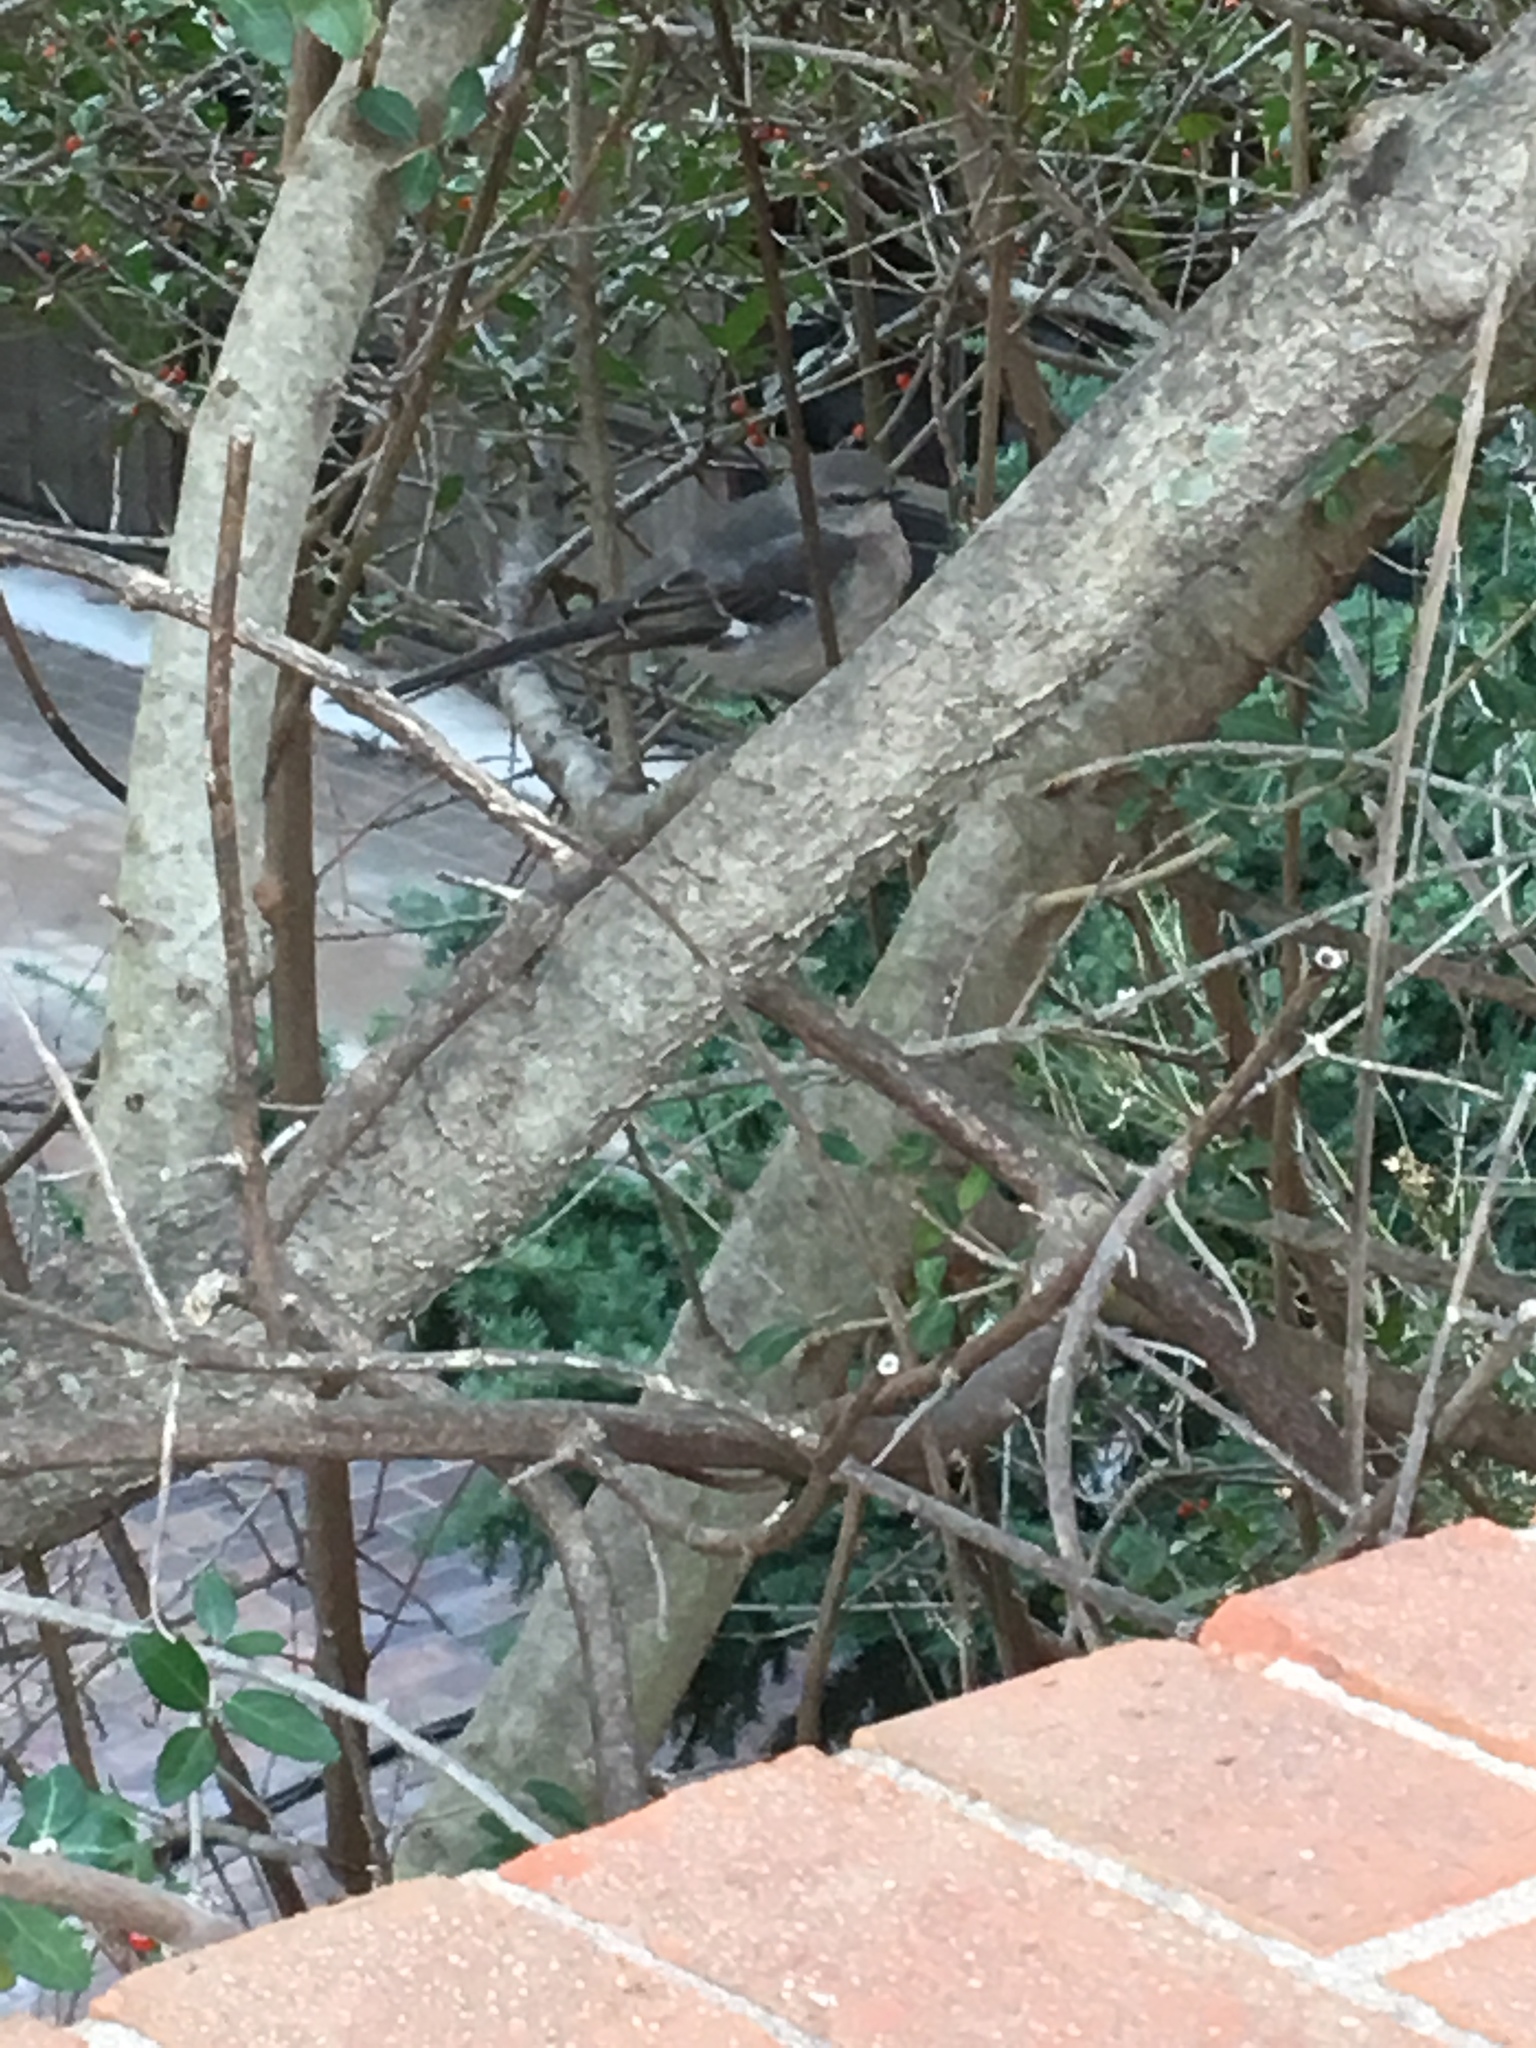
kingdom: Animalia
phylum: Chordata
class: Aves
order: Passeriformes
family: Mimidae
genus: Mimus
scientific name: Mimus polyglottos
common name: Northern mockingbird
